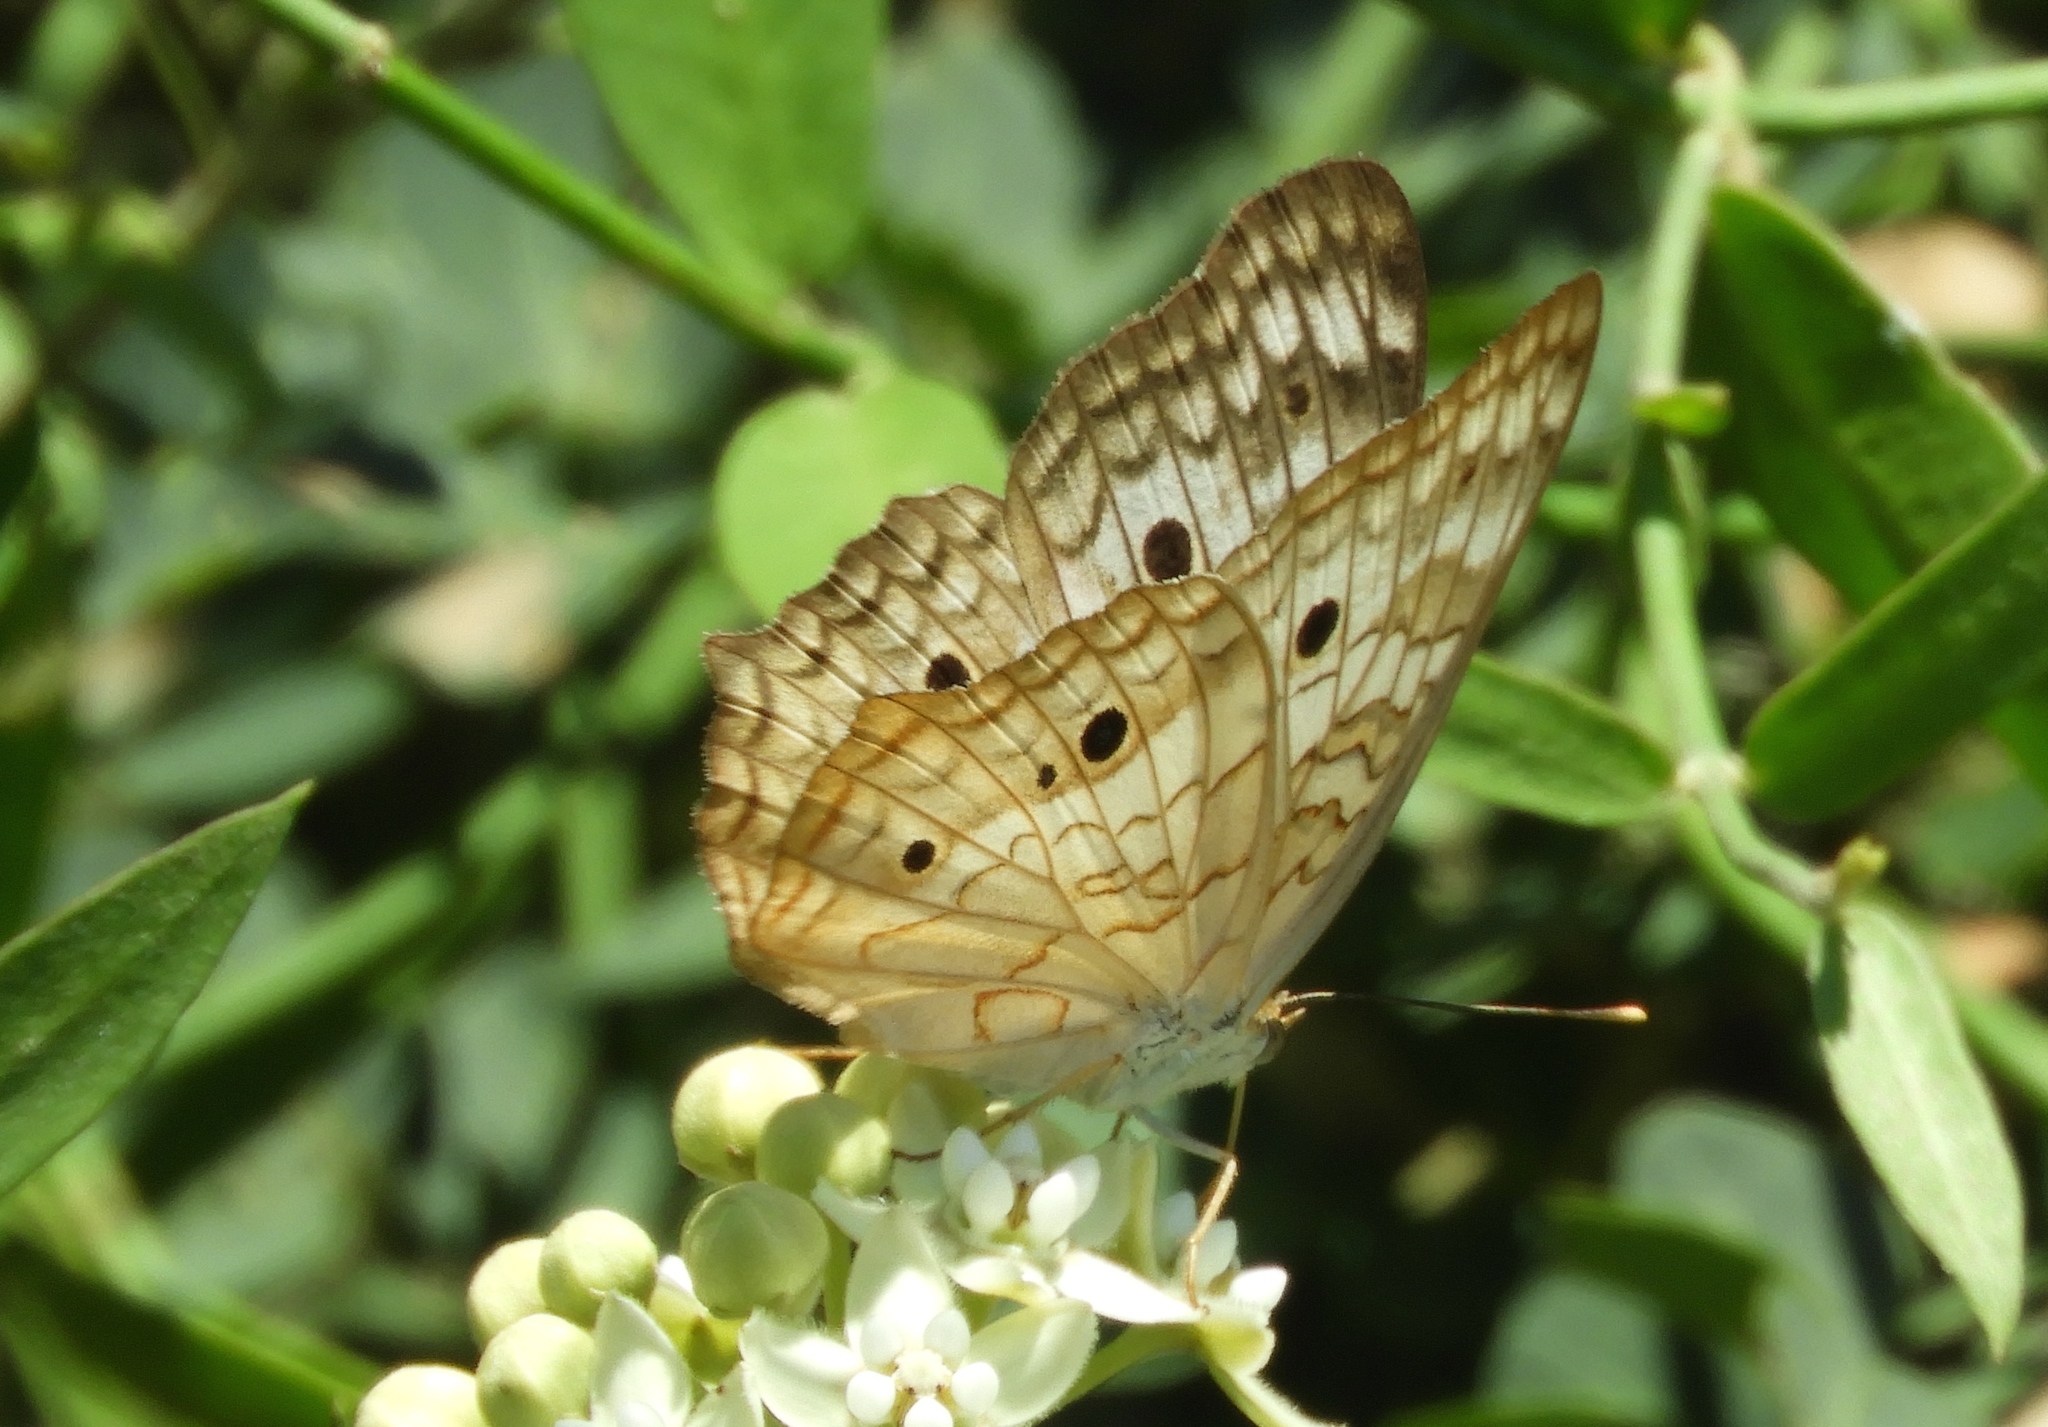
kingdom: Animalia
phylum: Arthropoda
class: Insecta
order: Lepidoptera
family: Nymphalidae
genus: Anartia
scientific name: Anartia jatrophae
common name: White peacock
